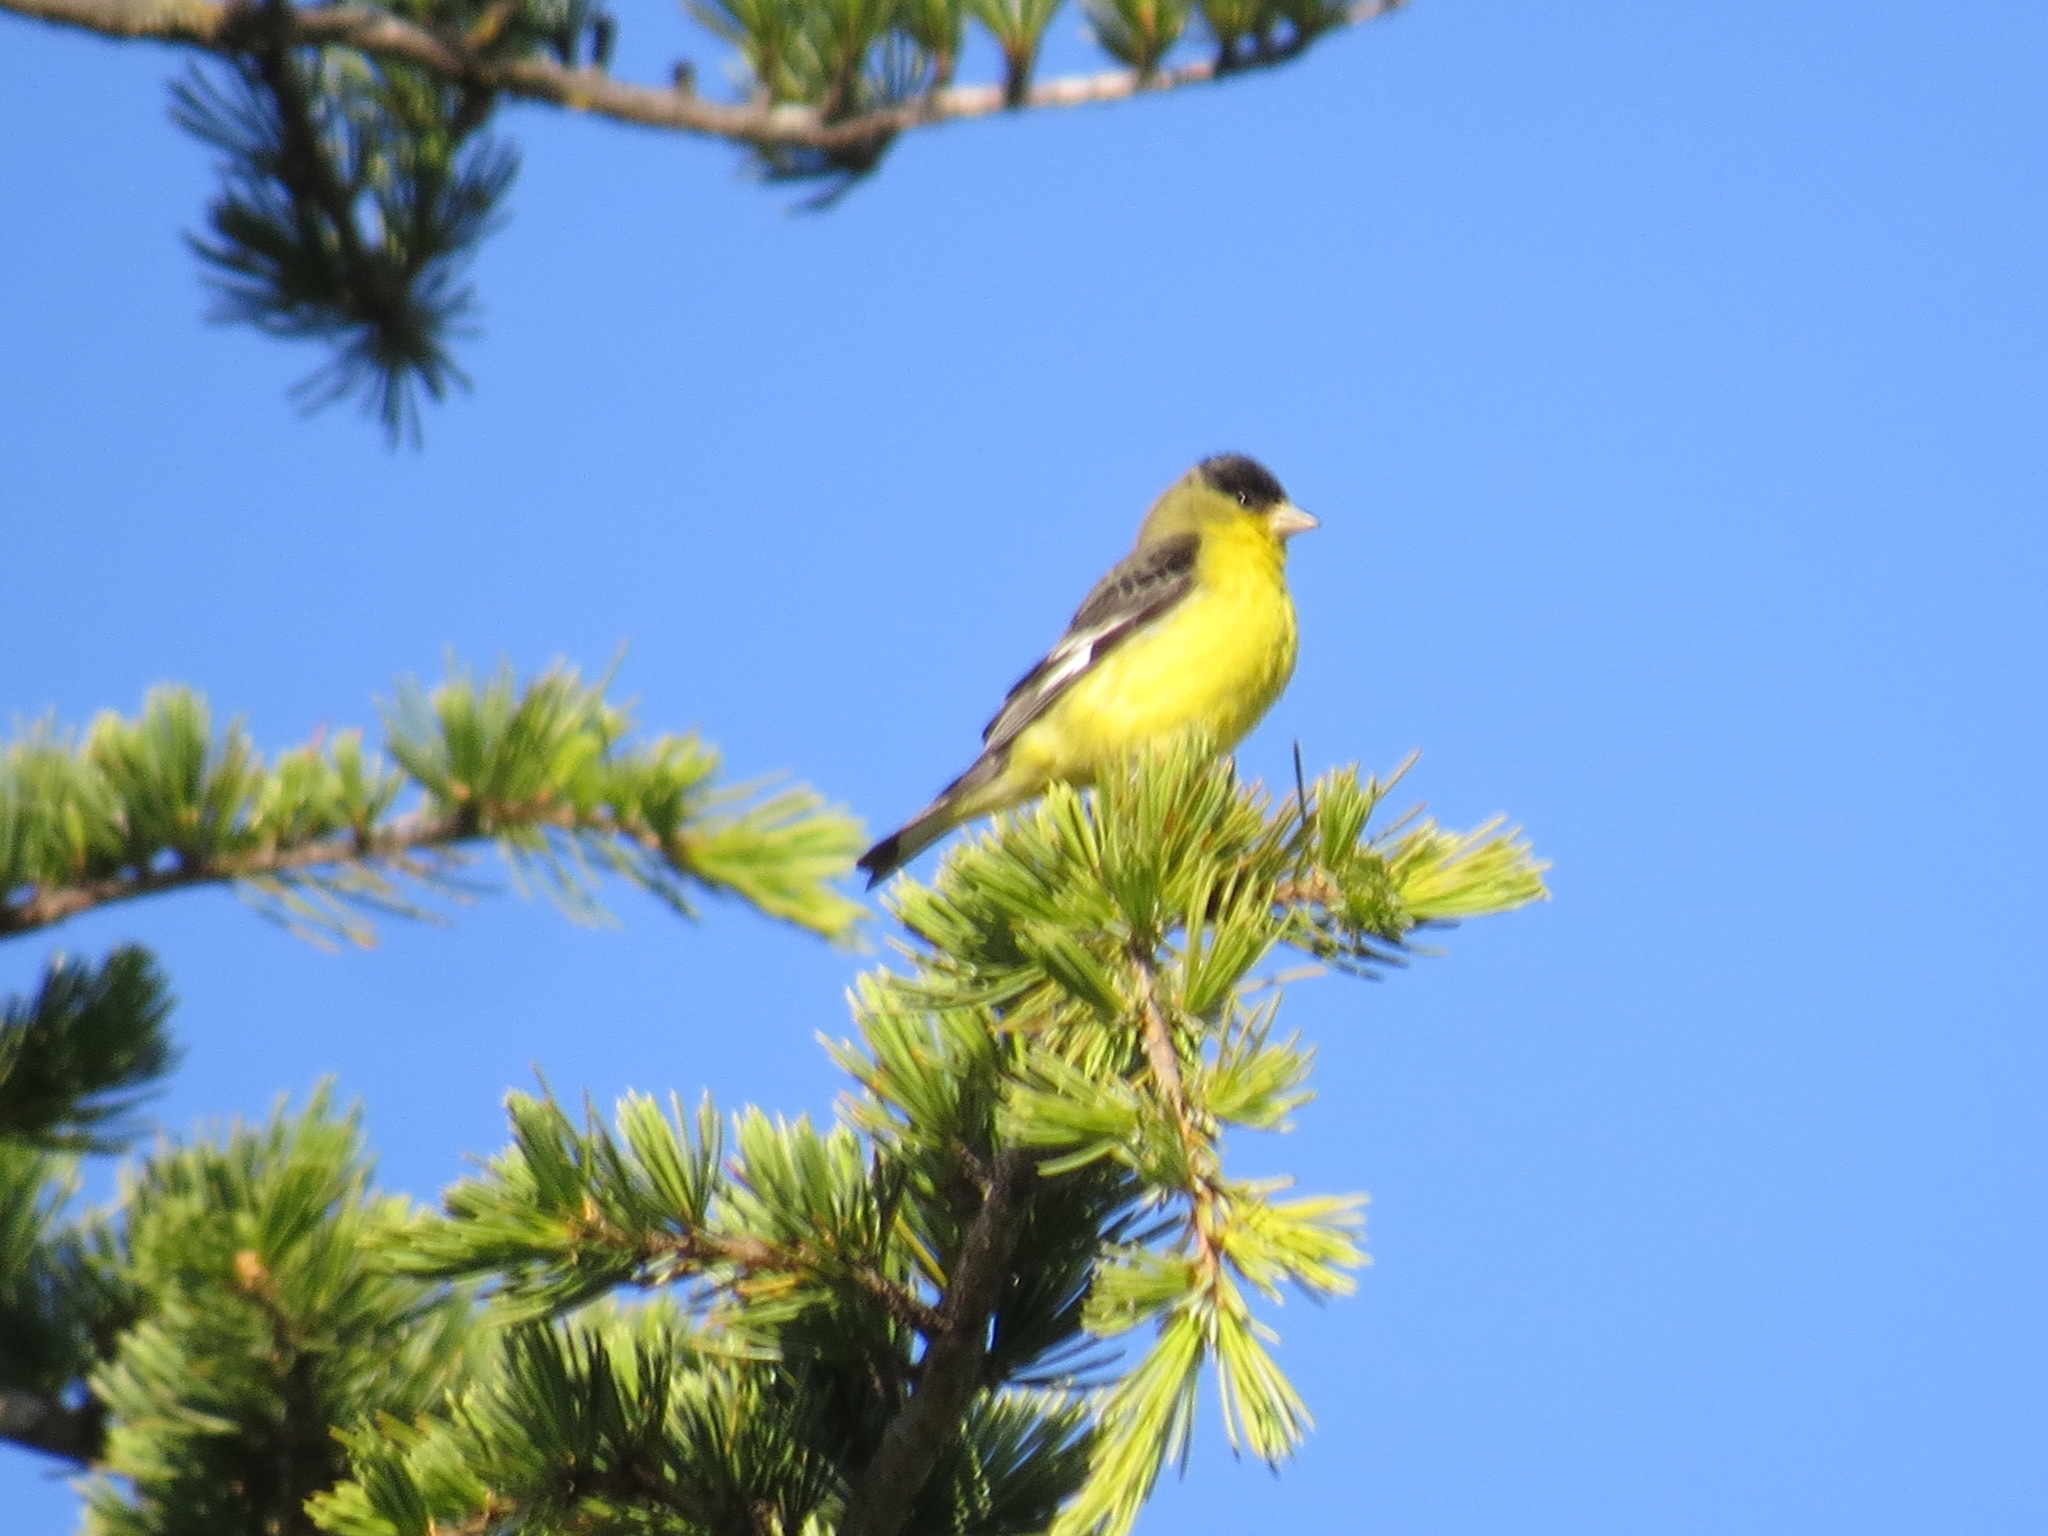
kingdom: Animalia
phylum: Chordata
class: Aves
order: Passeriformes
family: Fringillidae
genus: Spinus
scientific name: Spinus psaltria
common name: Lesser goldfinch
